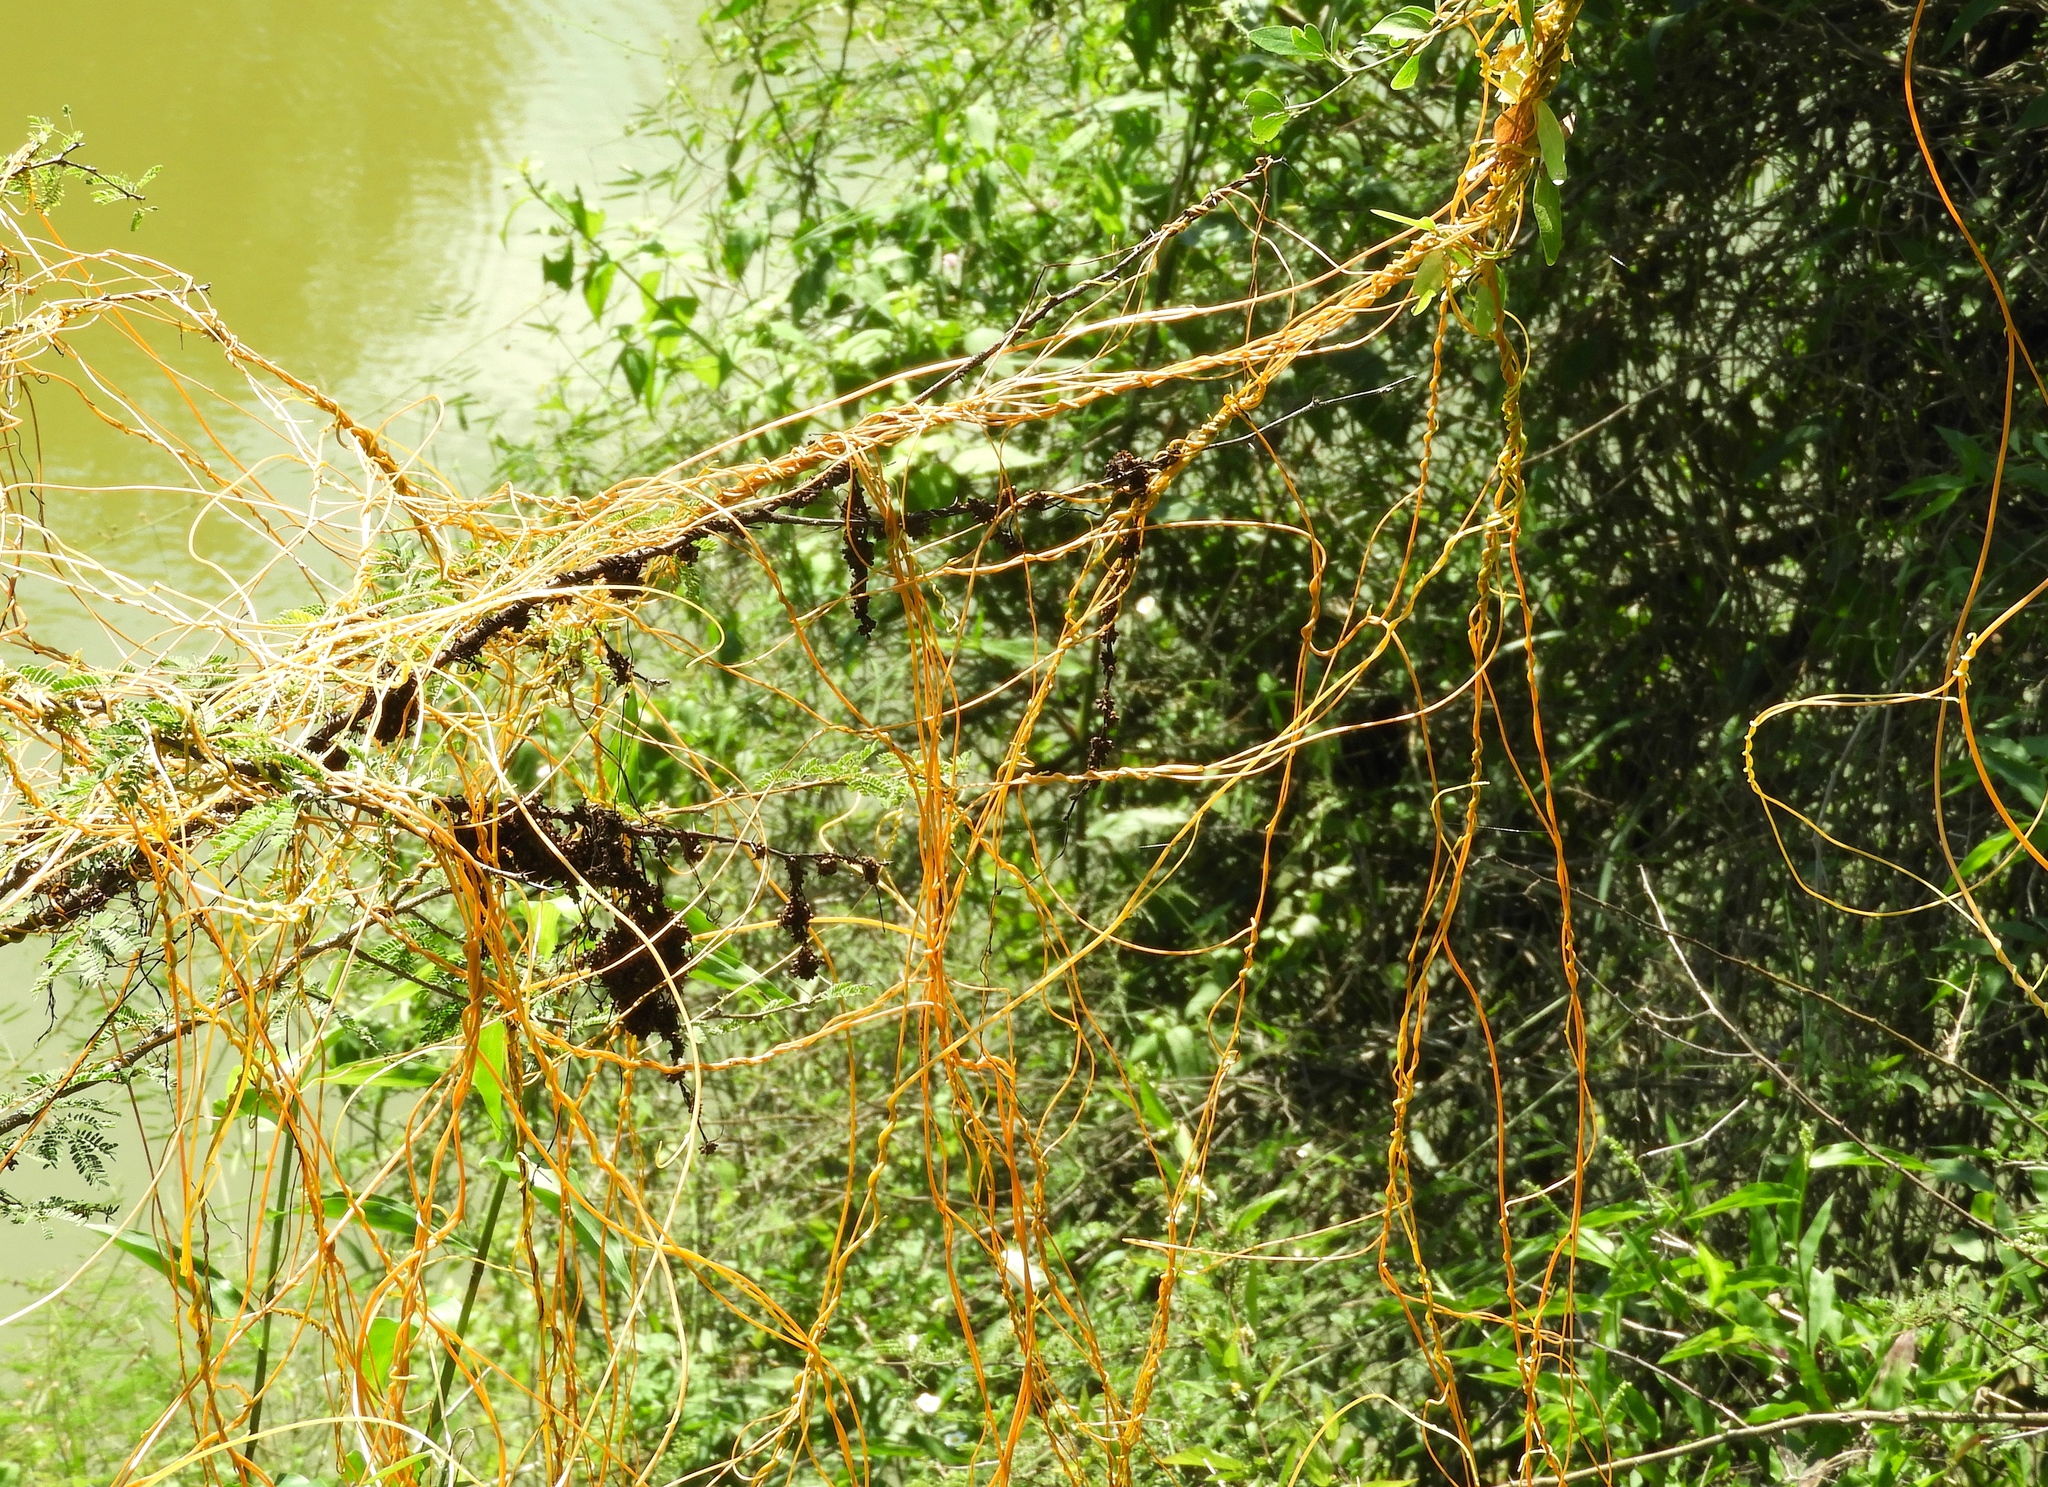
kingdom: Plantae
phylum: Tracheophyta
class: Magnoliopsida
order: Solanales
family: Convolvulaceae
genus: Cuscuta
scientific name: Cuscuta
